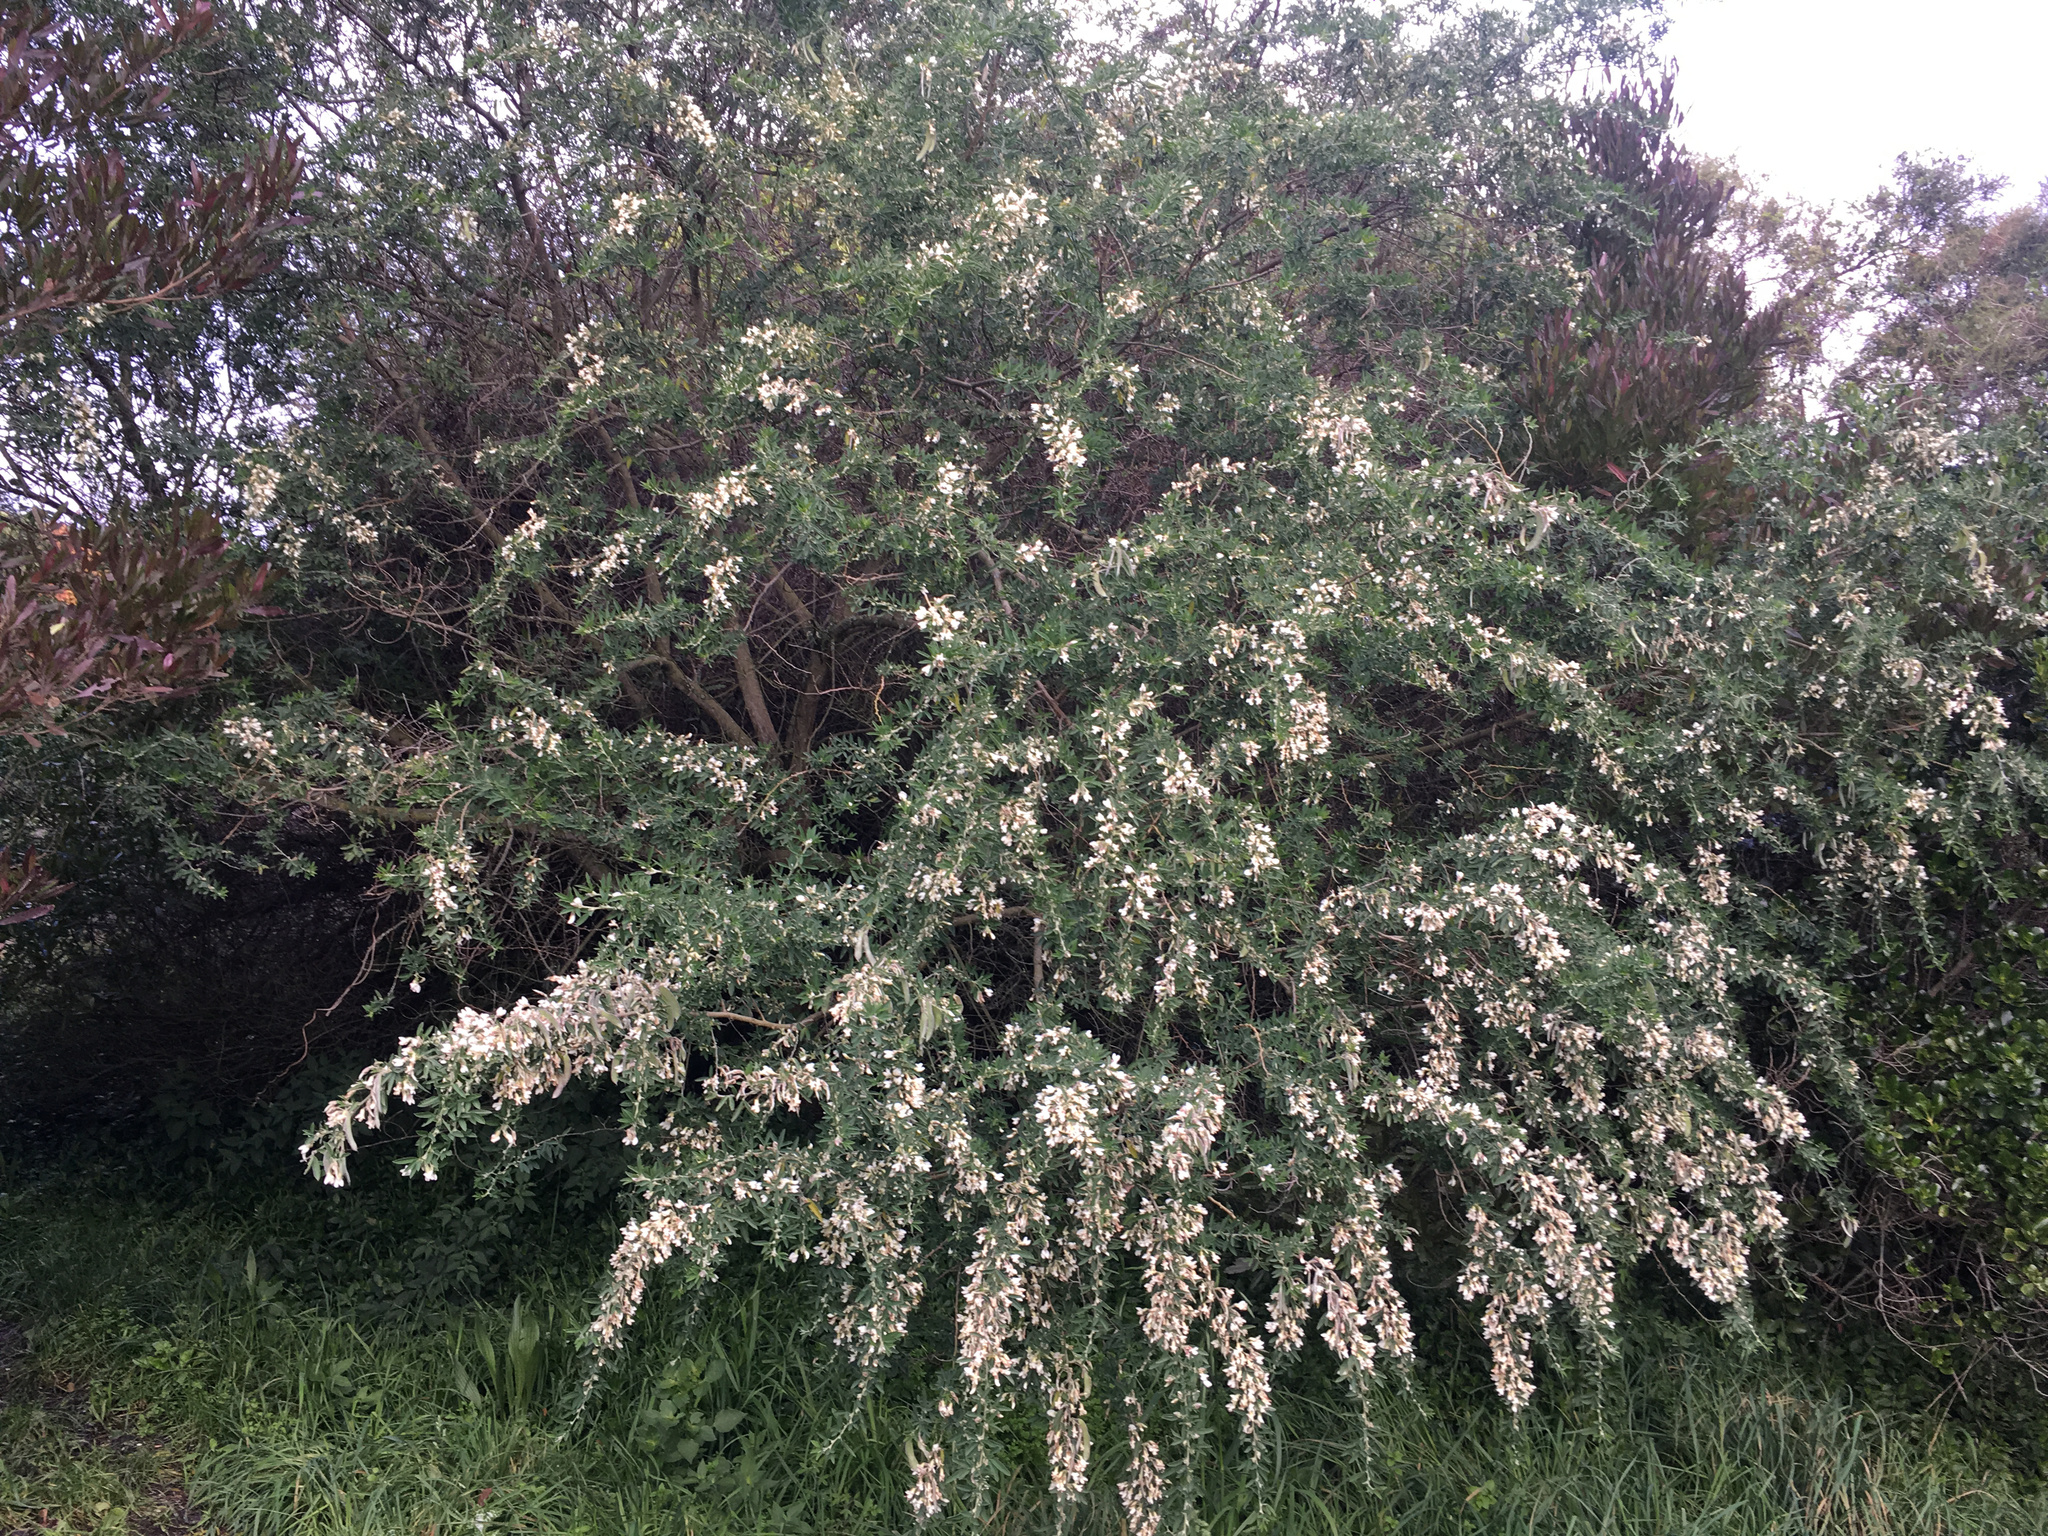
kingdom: Plantae
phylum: Tracheophyta
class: Magnoliopsida
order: Fabales
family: Fabaceae
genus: Chamaecytisus
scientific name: Chamaecytisus prolifer
